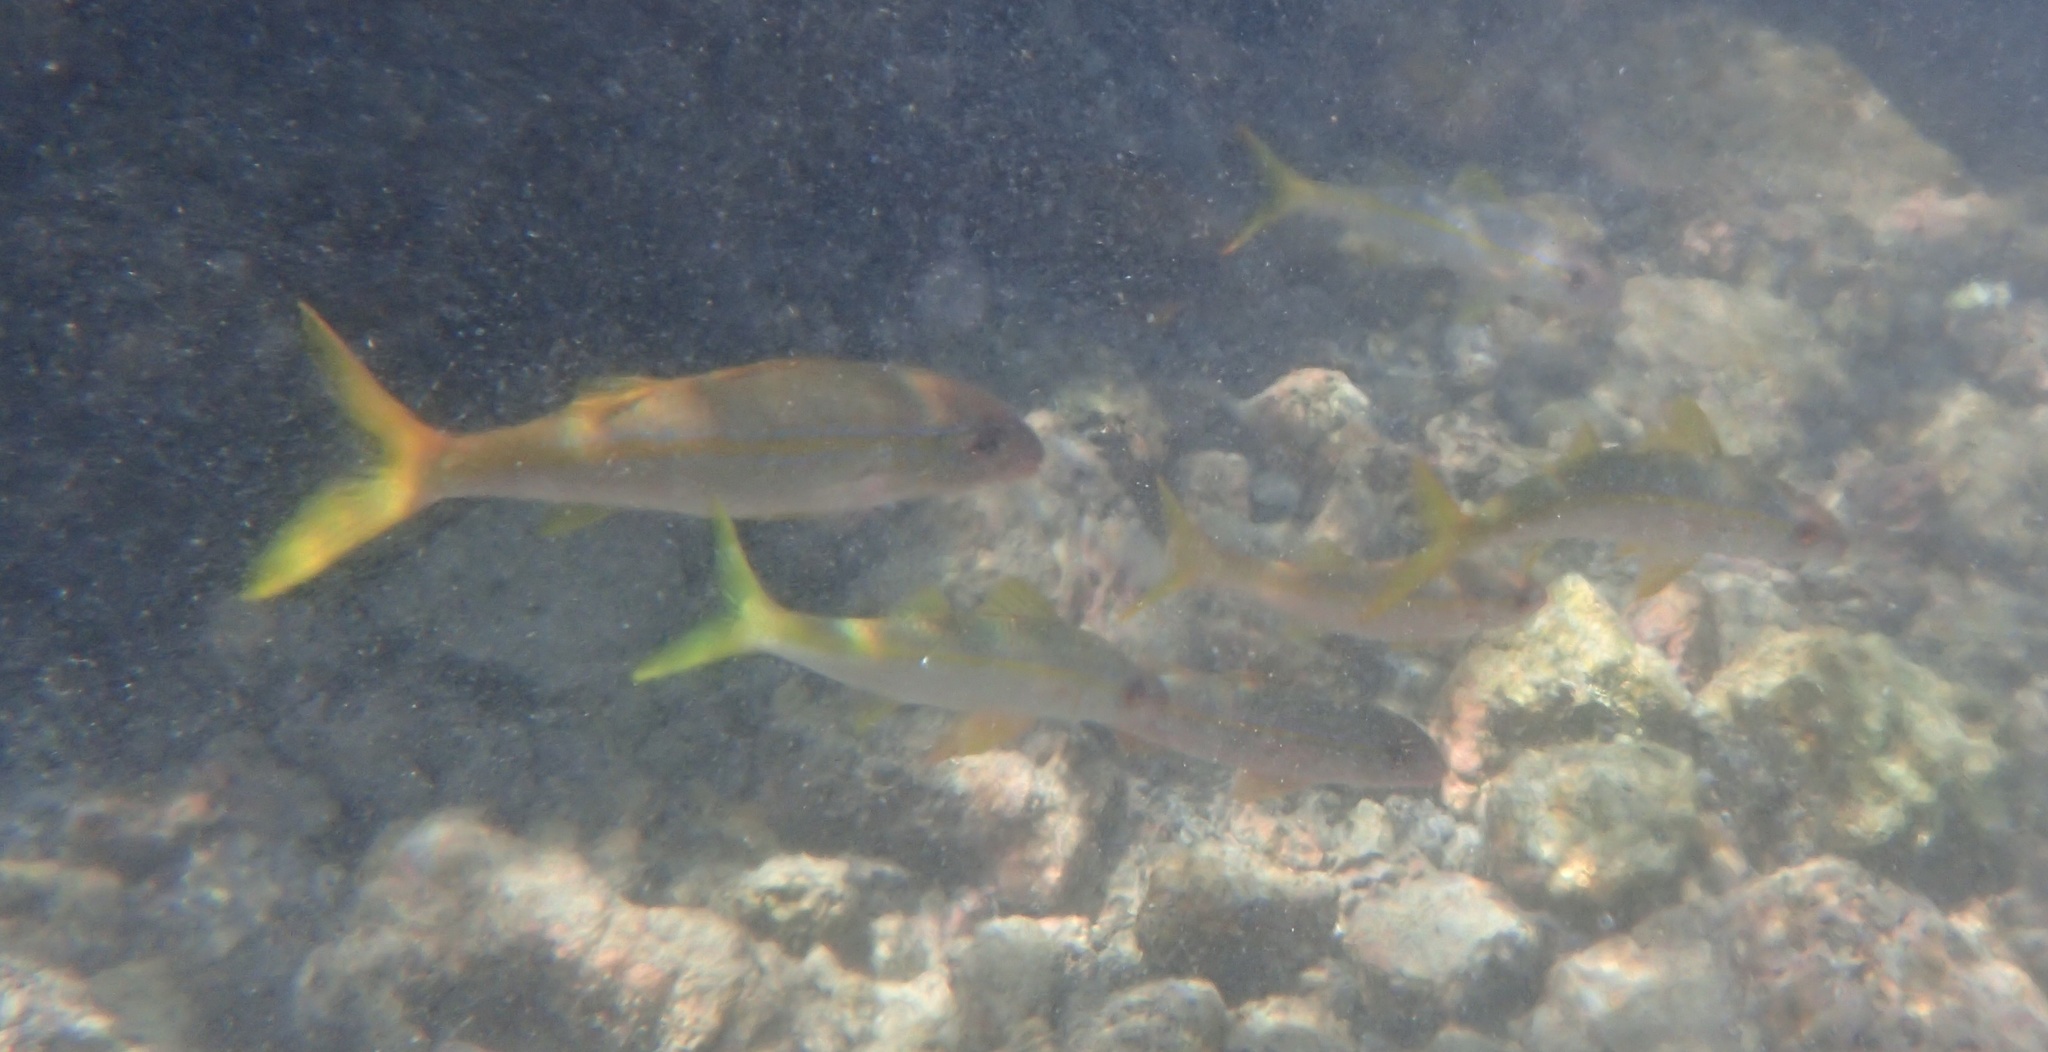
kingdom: Animalia
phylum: Chordata
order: Perciformes
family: Mullidae
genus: Mulloidichthys
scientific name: Mulloidichthys vanicolensis
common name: Yellowfin goatfish
